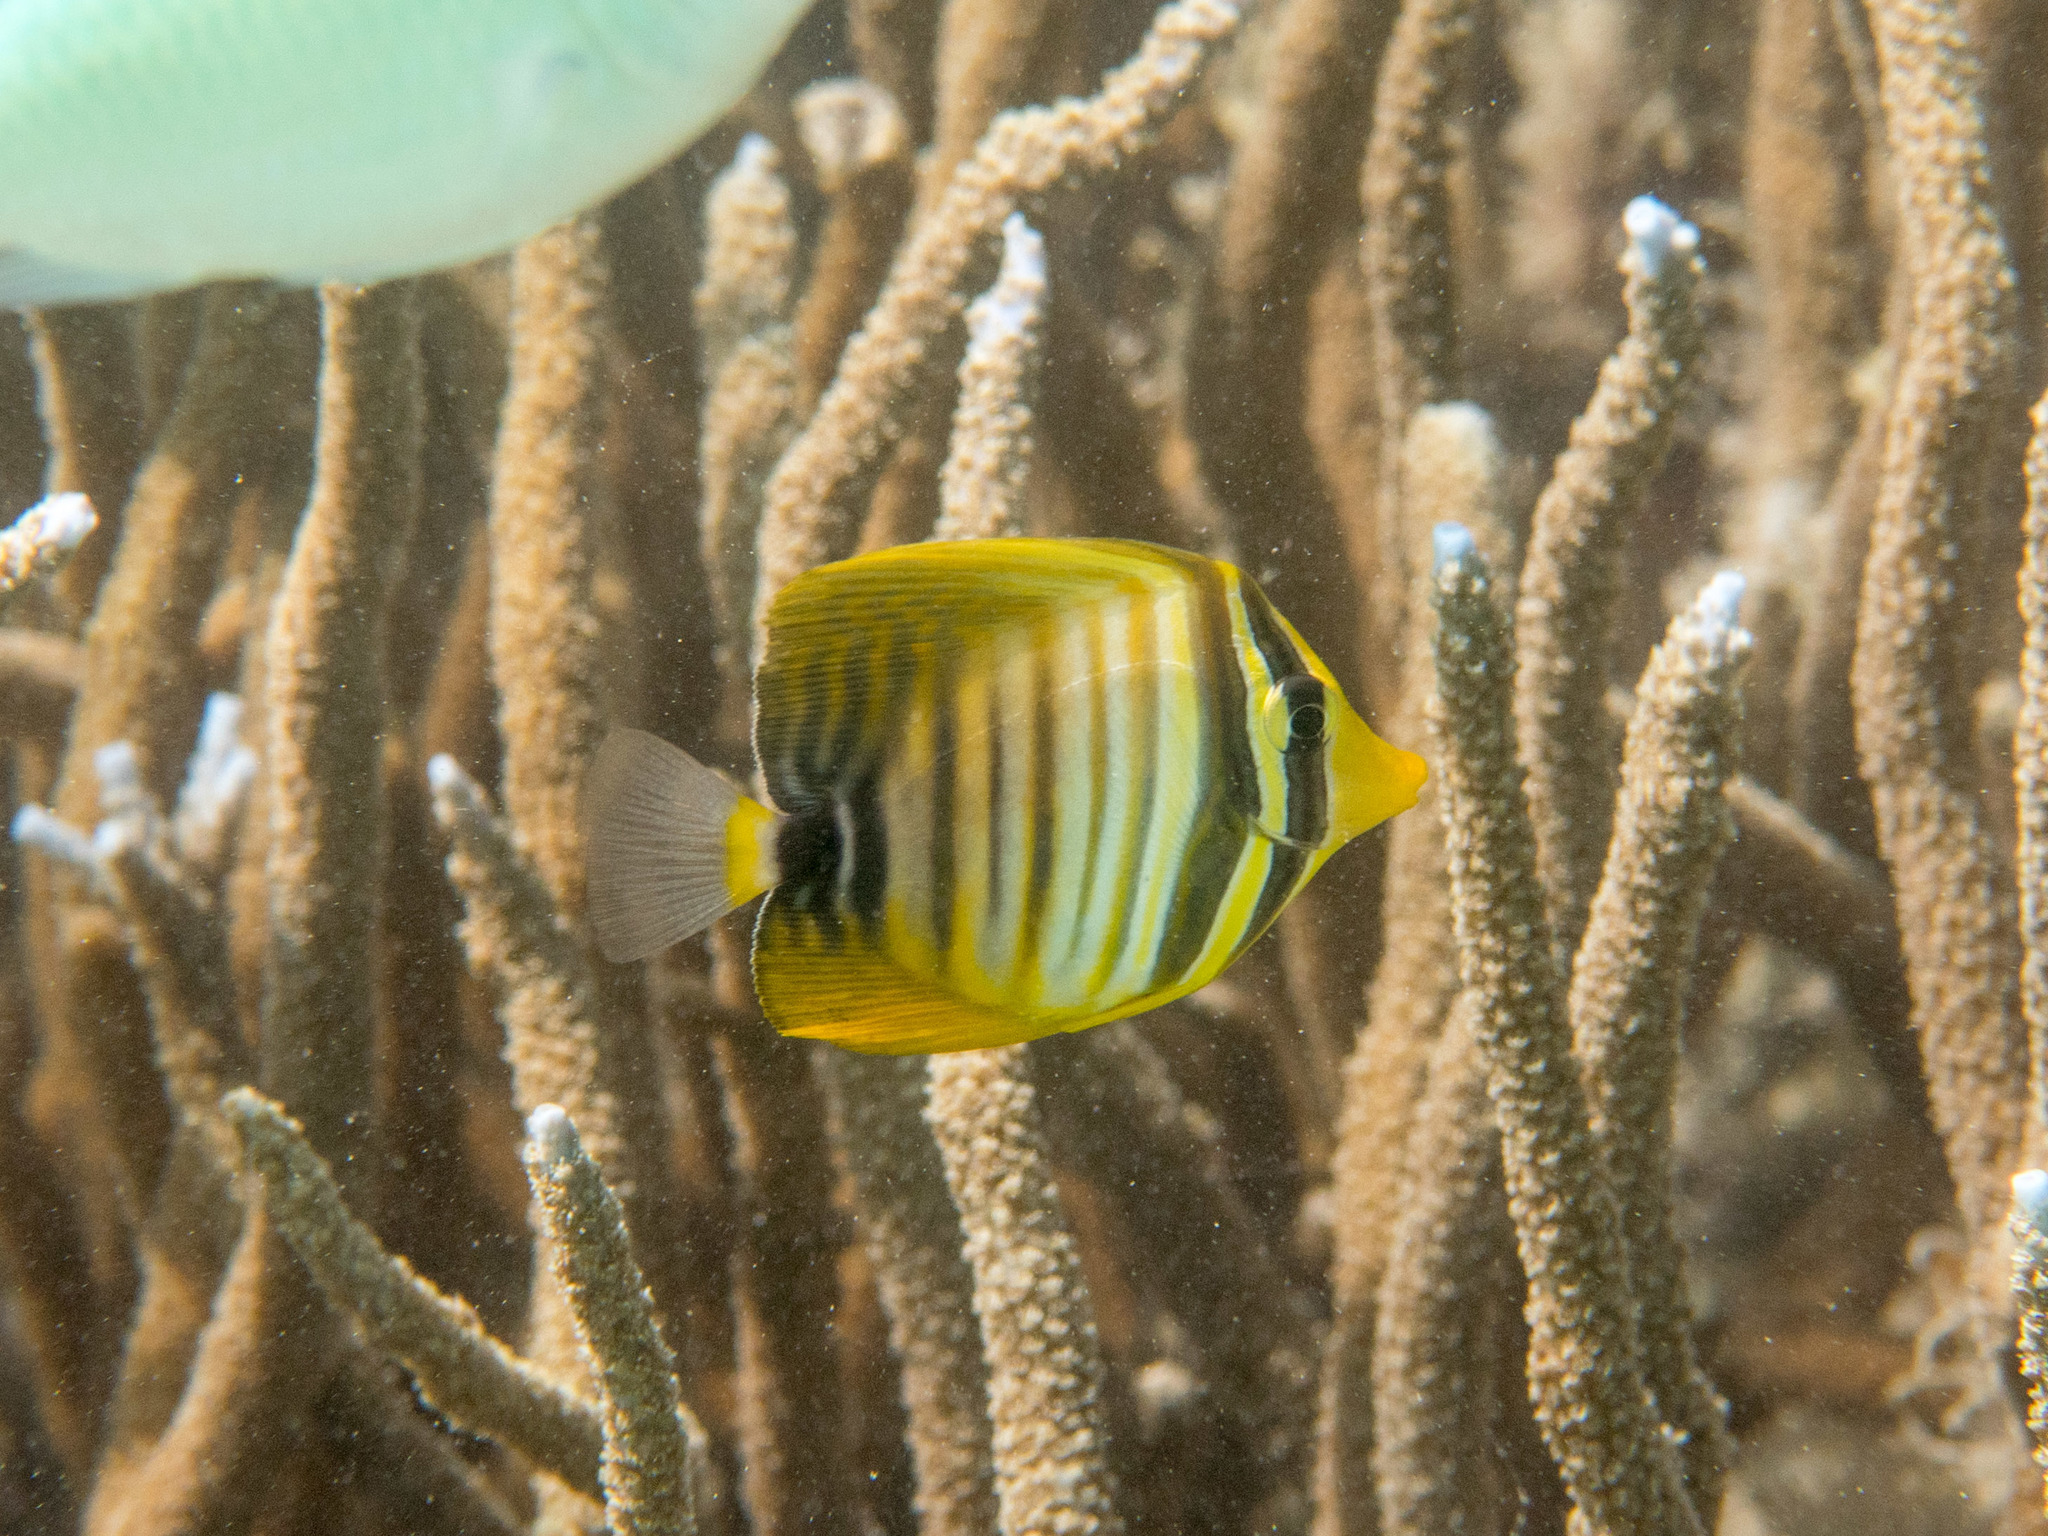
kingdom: Animalia
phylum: Chordata
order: Perciformes
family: Acanthuridae
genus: Zebrasoma
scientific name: Zebrasoma desjardinii
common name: Desjardin's sailfin tang
